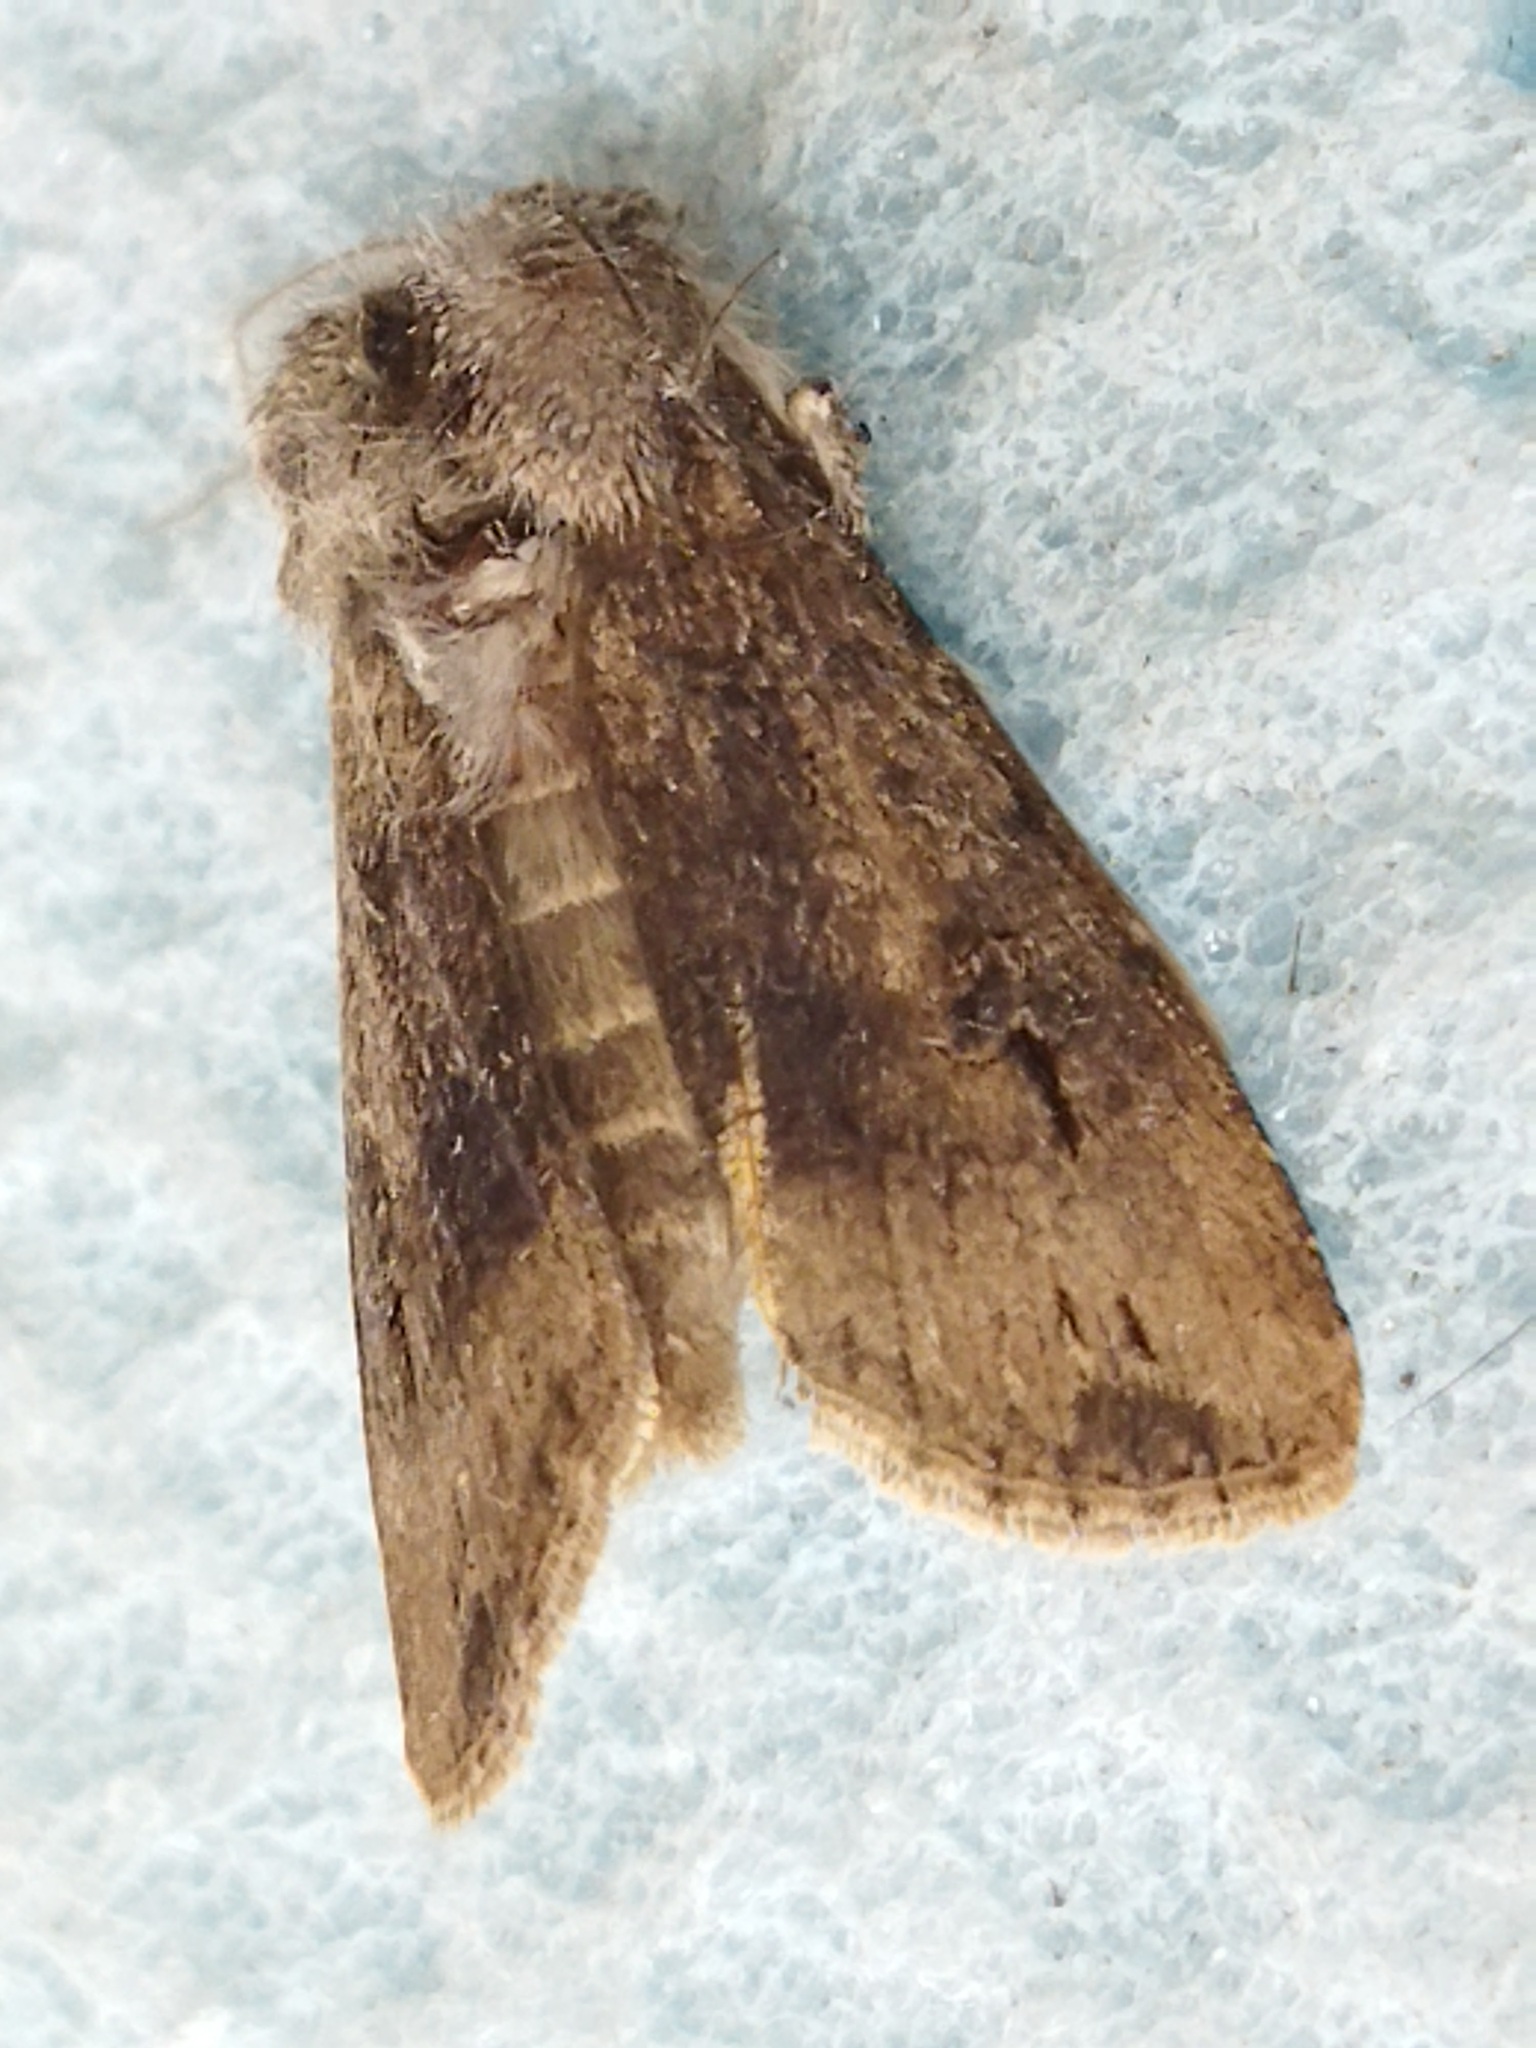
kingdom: Animalia
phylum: Arthropoda
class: Insecta
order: Lepidoptera
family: Noctuidae
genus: Agrotis
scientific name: Agrotis ipsilon
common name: Dark sword-grass
